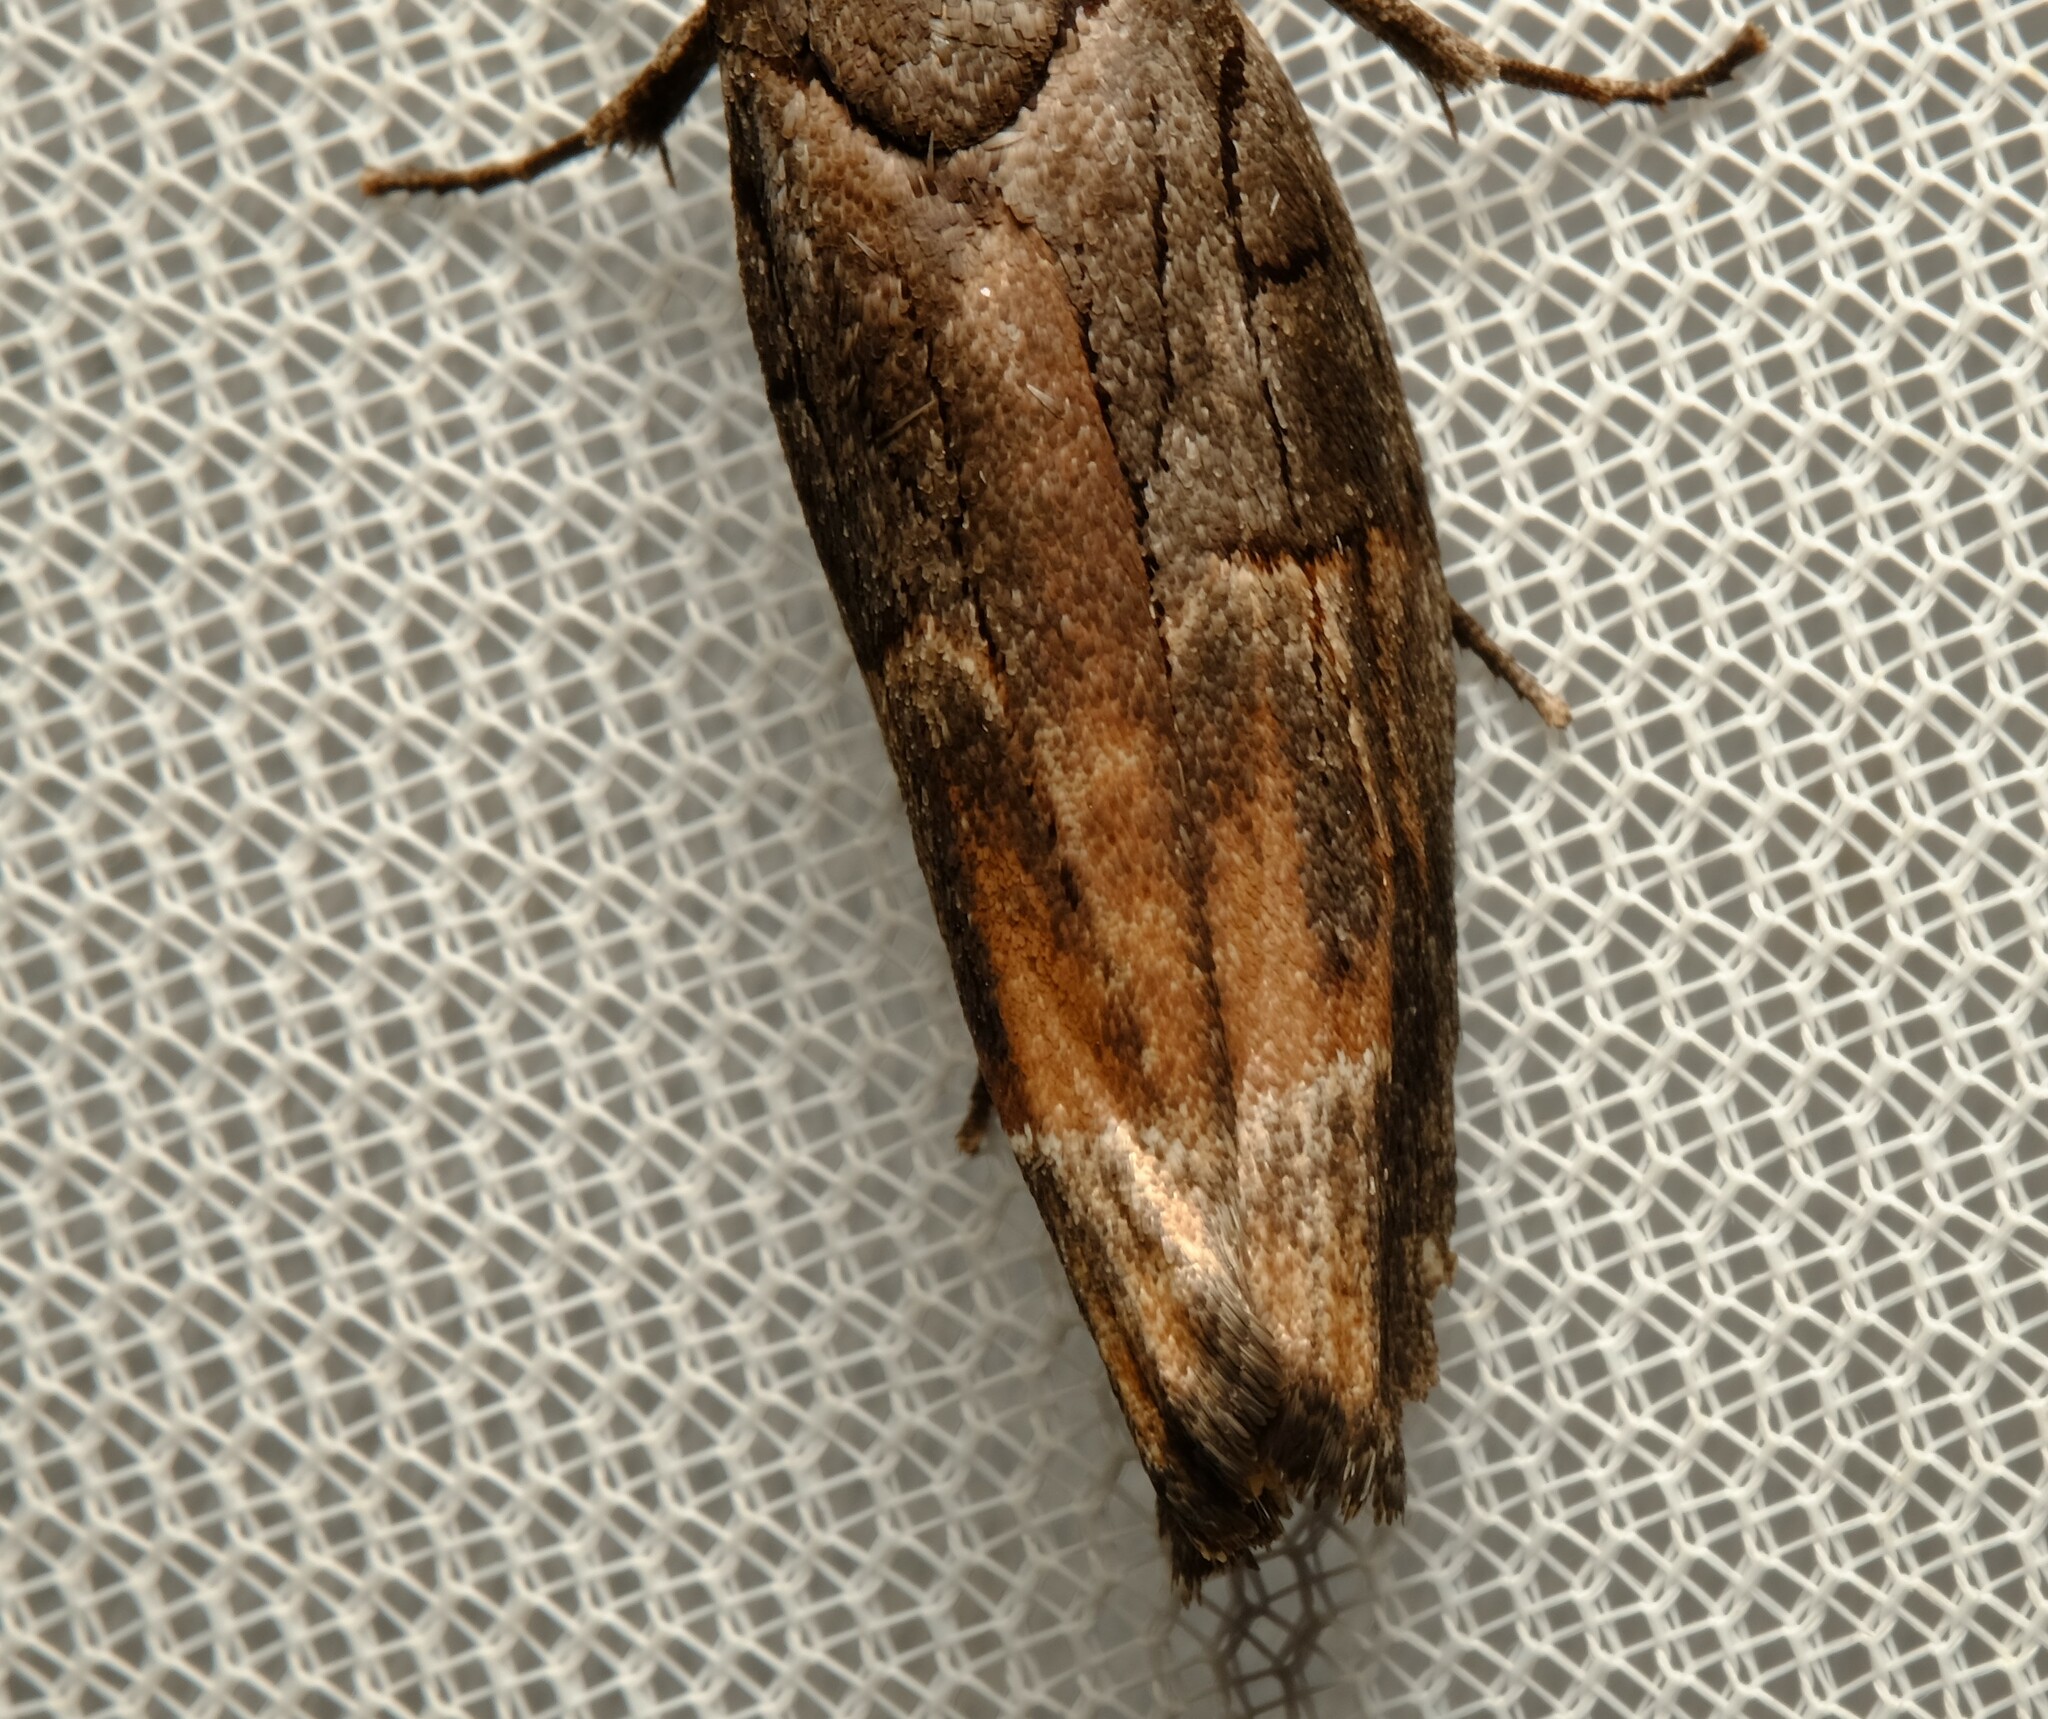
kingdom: Animalia
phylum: Arthropoda
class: Insecta
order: Lepidoptera
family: Xyloryctidae
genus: Illidgea
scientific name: Illidgea
